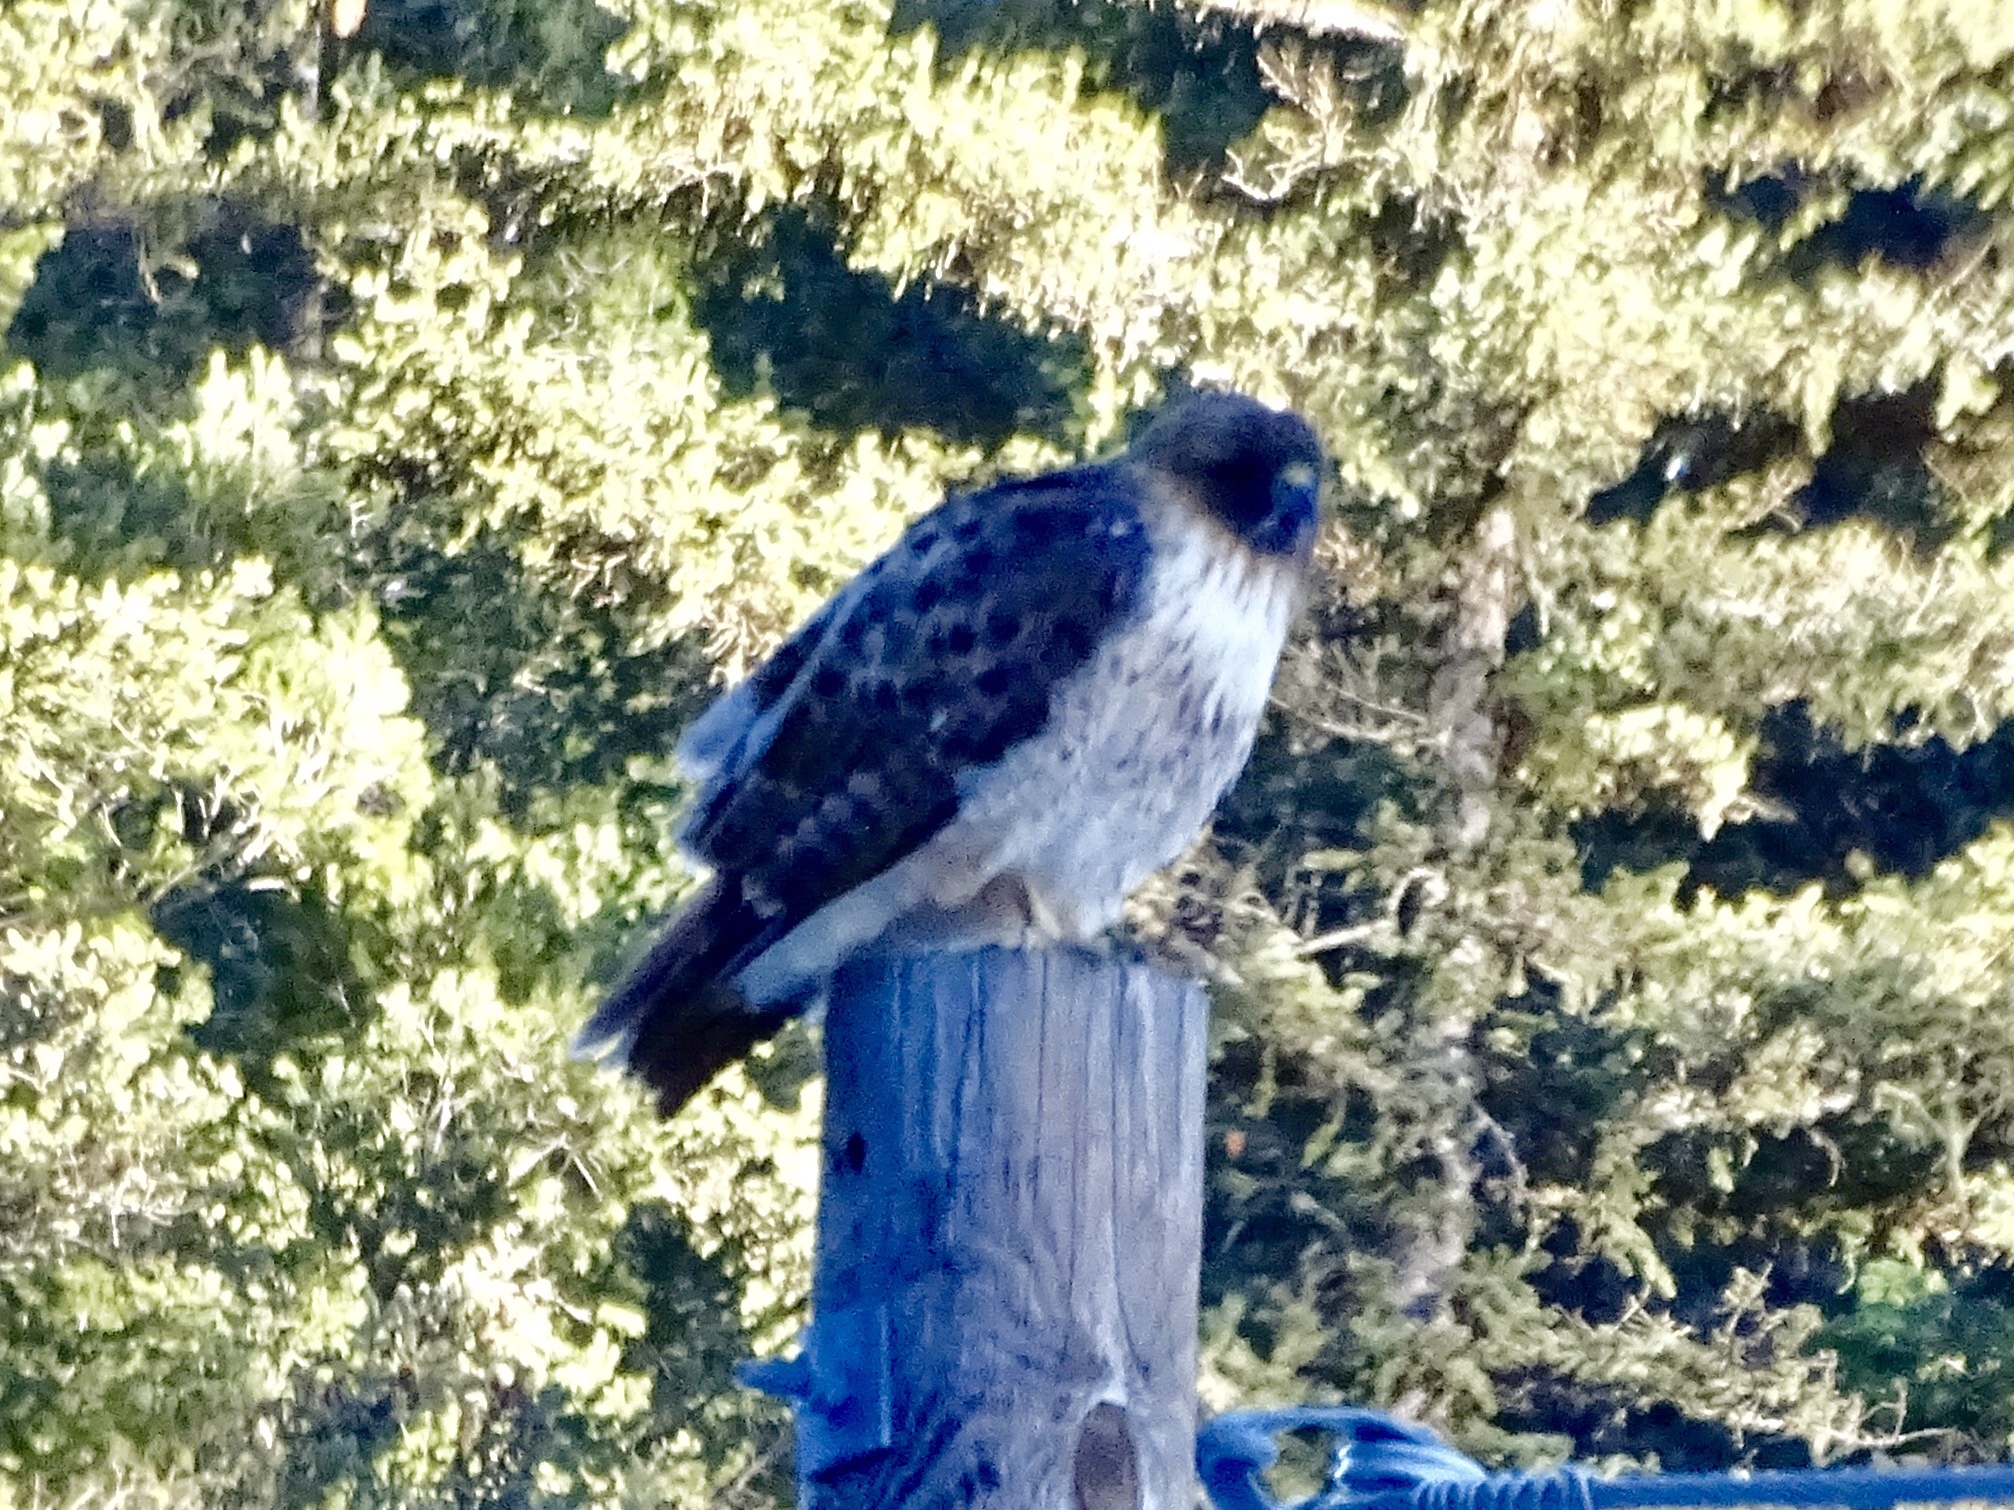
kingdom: Animalia
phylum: Chordata
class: Aves
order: Accipitriformes
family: Accipitridae
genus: Buteo
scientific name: Buteo jamaicensis
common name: Red-tailed hawk
